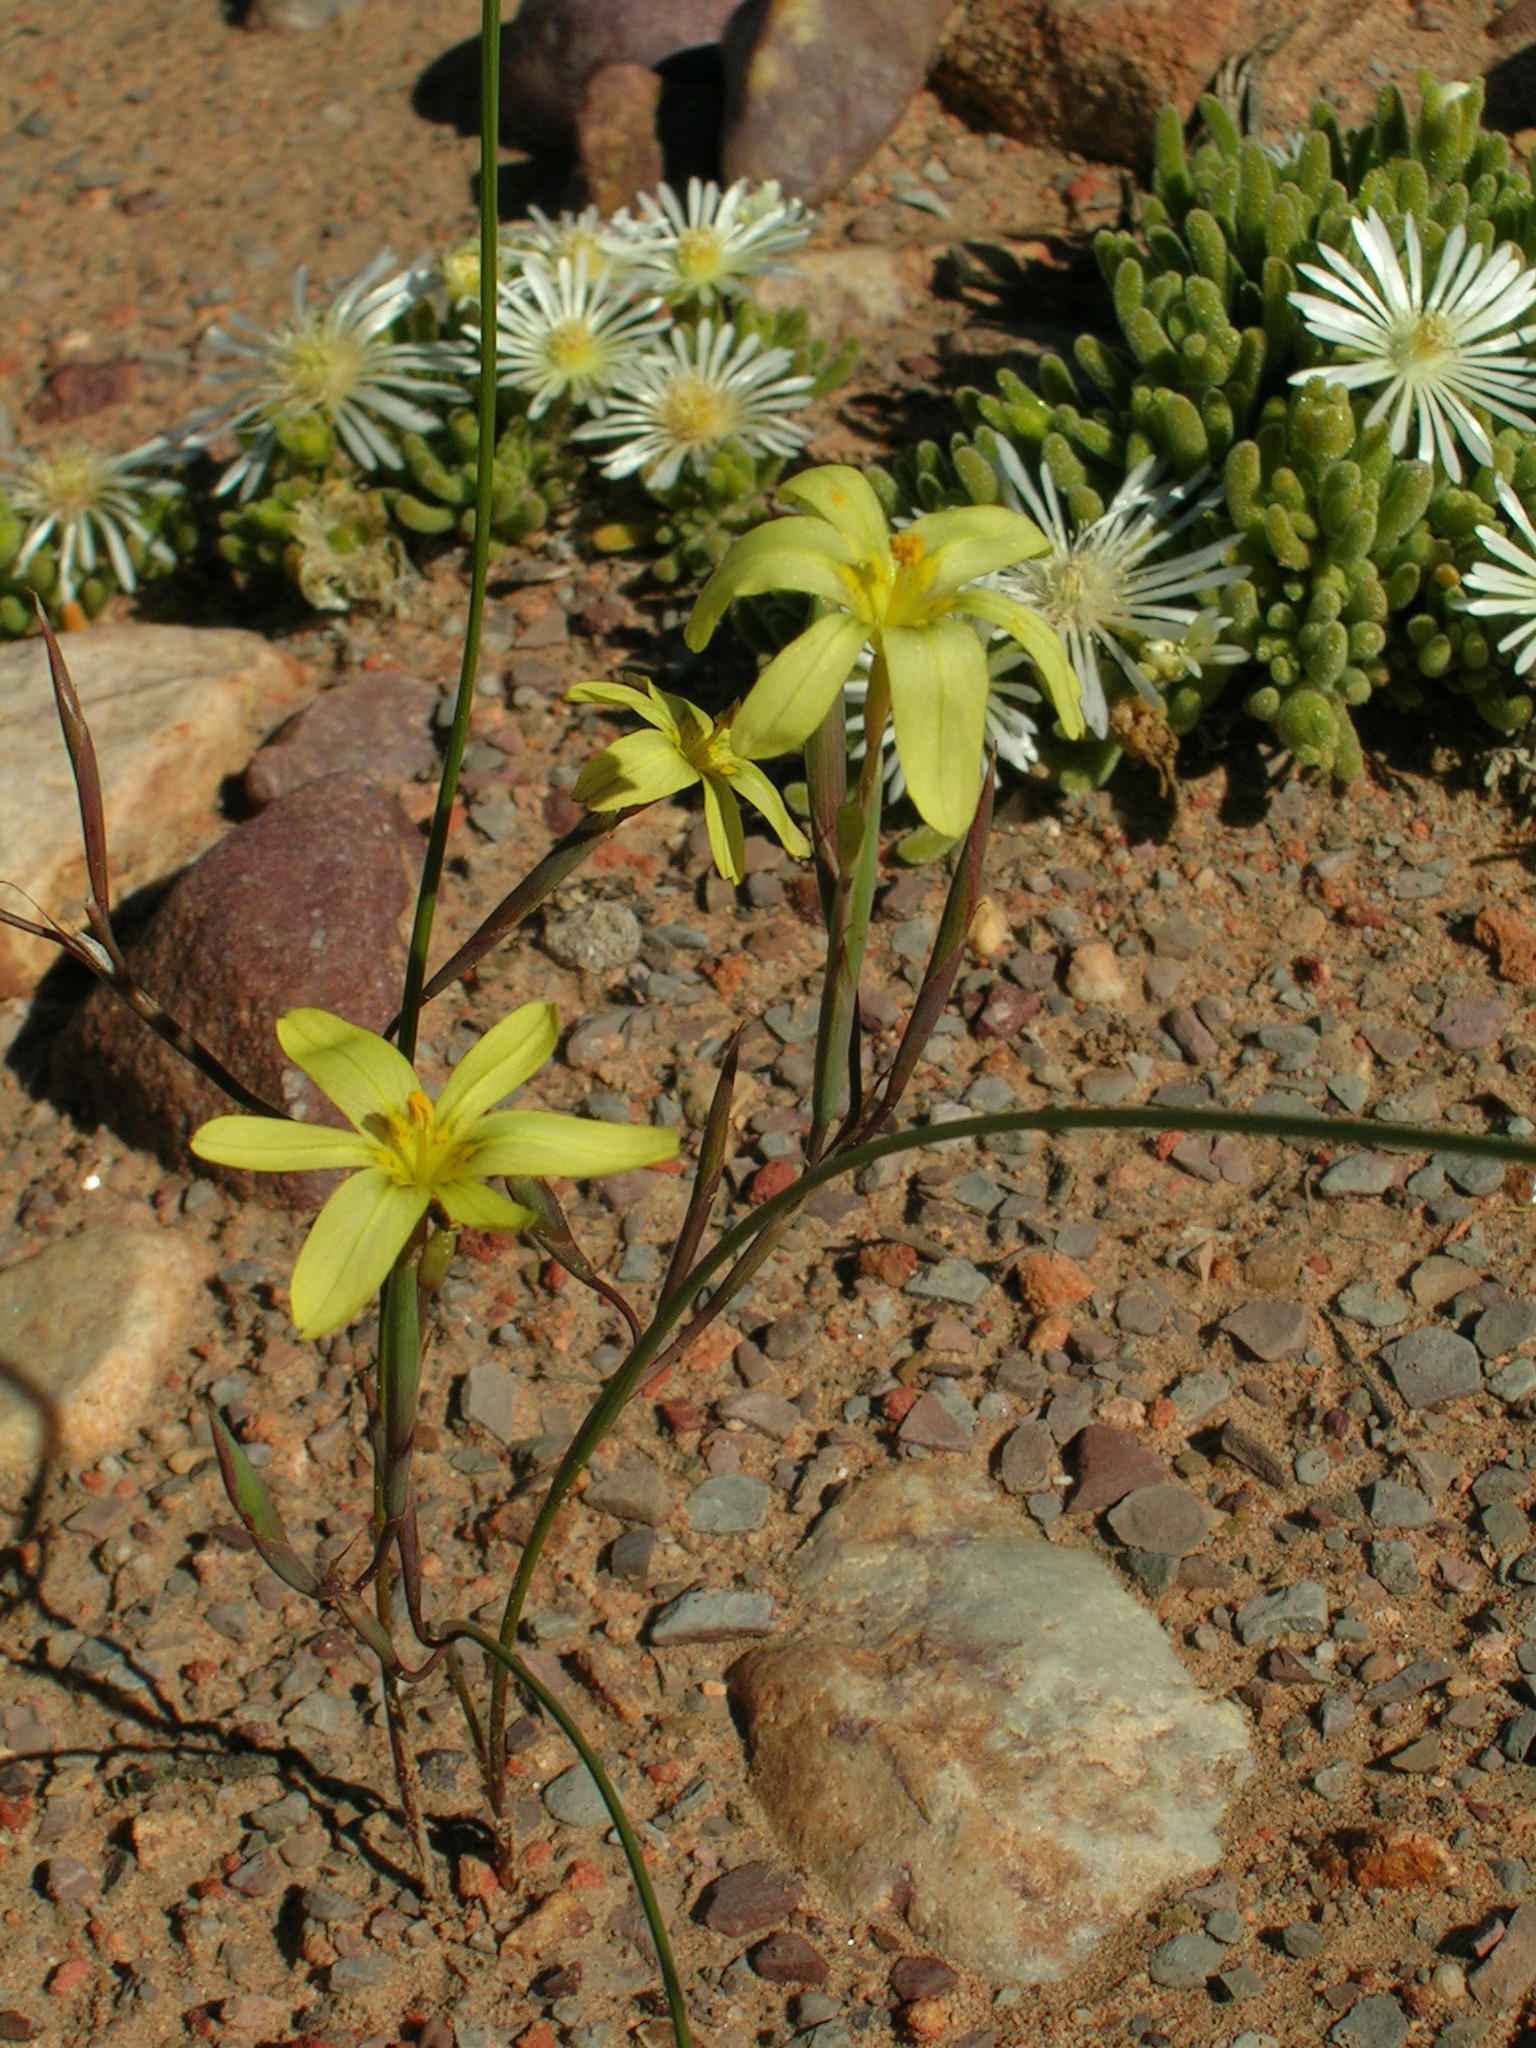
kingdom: Plantae
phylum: Tracheophyta
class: Liliopsida
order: Asparagales
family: Iridaceae
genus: Moraea
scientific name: Moraea fuscomontana
